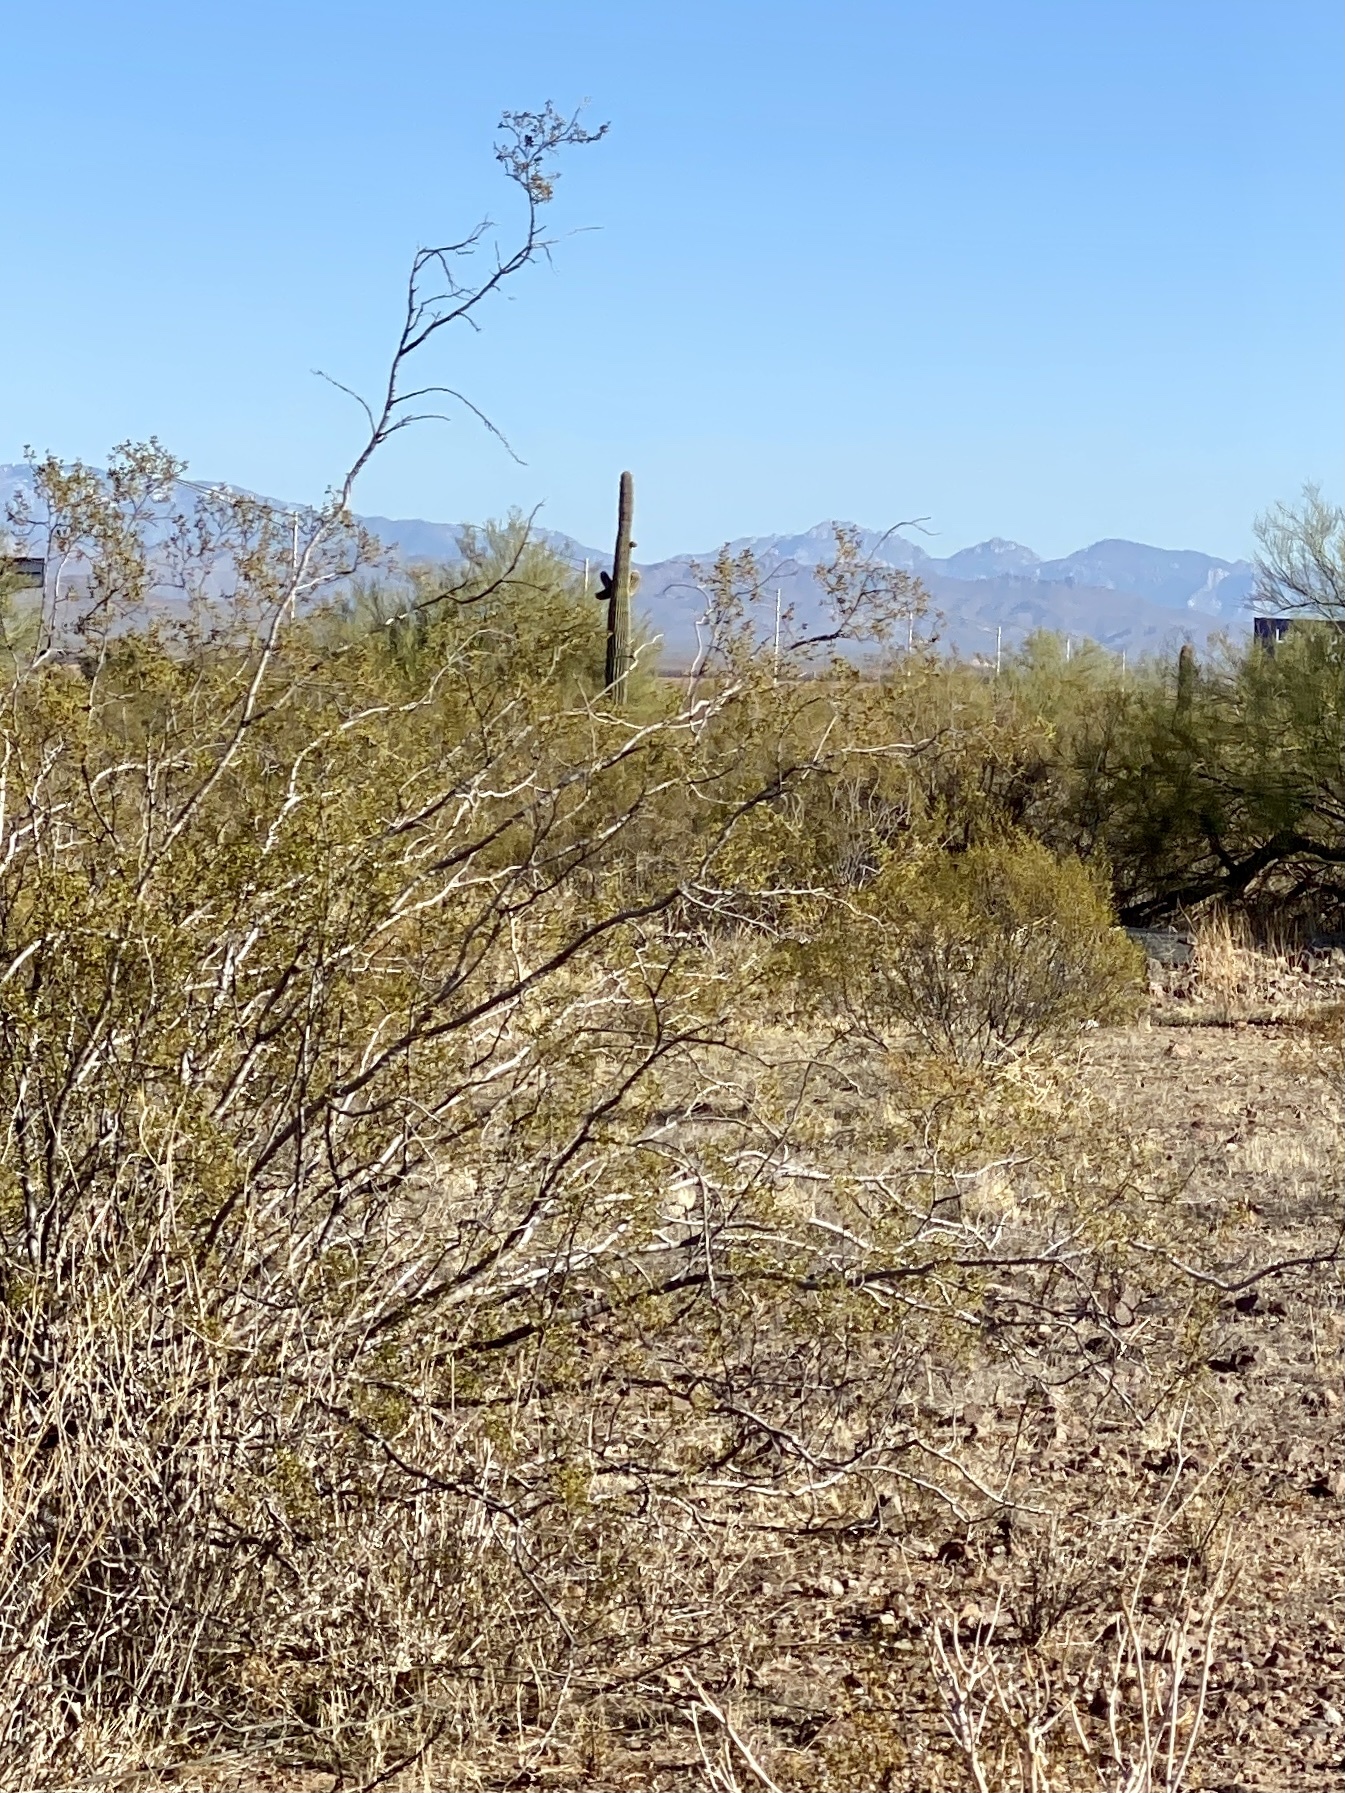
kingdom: Plantae
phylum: Tracheophyta
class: Magnoliopsida
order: Zygophyllales
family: Zygophyllaceae
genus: Larrea
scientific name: Larrea tridentata
